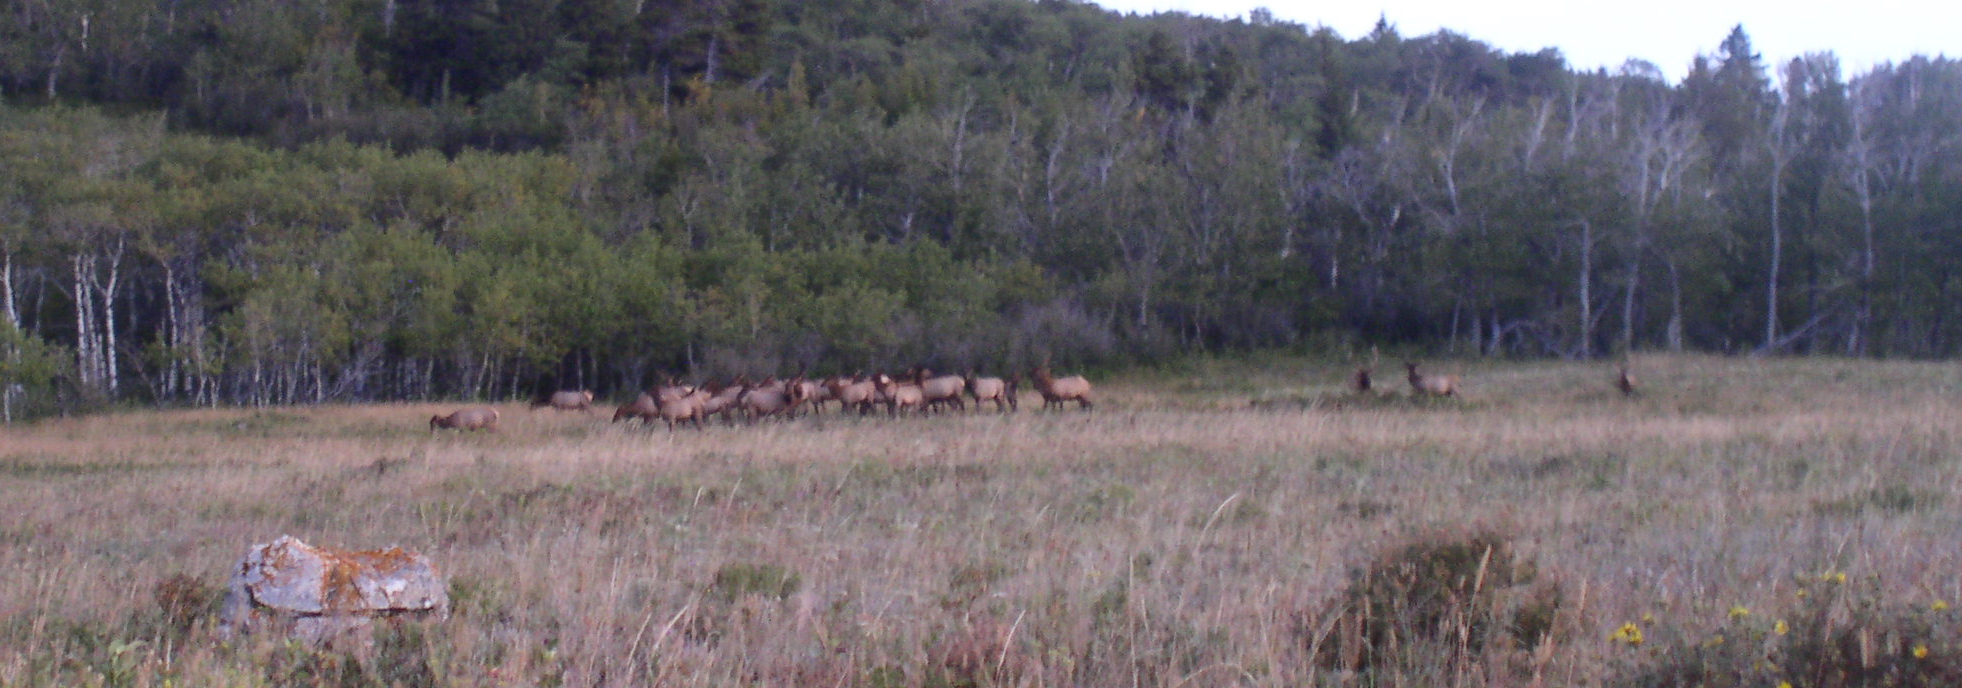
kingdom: Animalia
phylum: Chordata
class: Mammalia
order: Artiodactyla
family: Cervidae
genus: Cervus
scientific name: Cervus elaphus
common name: Red deer
